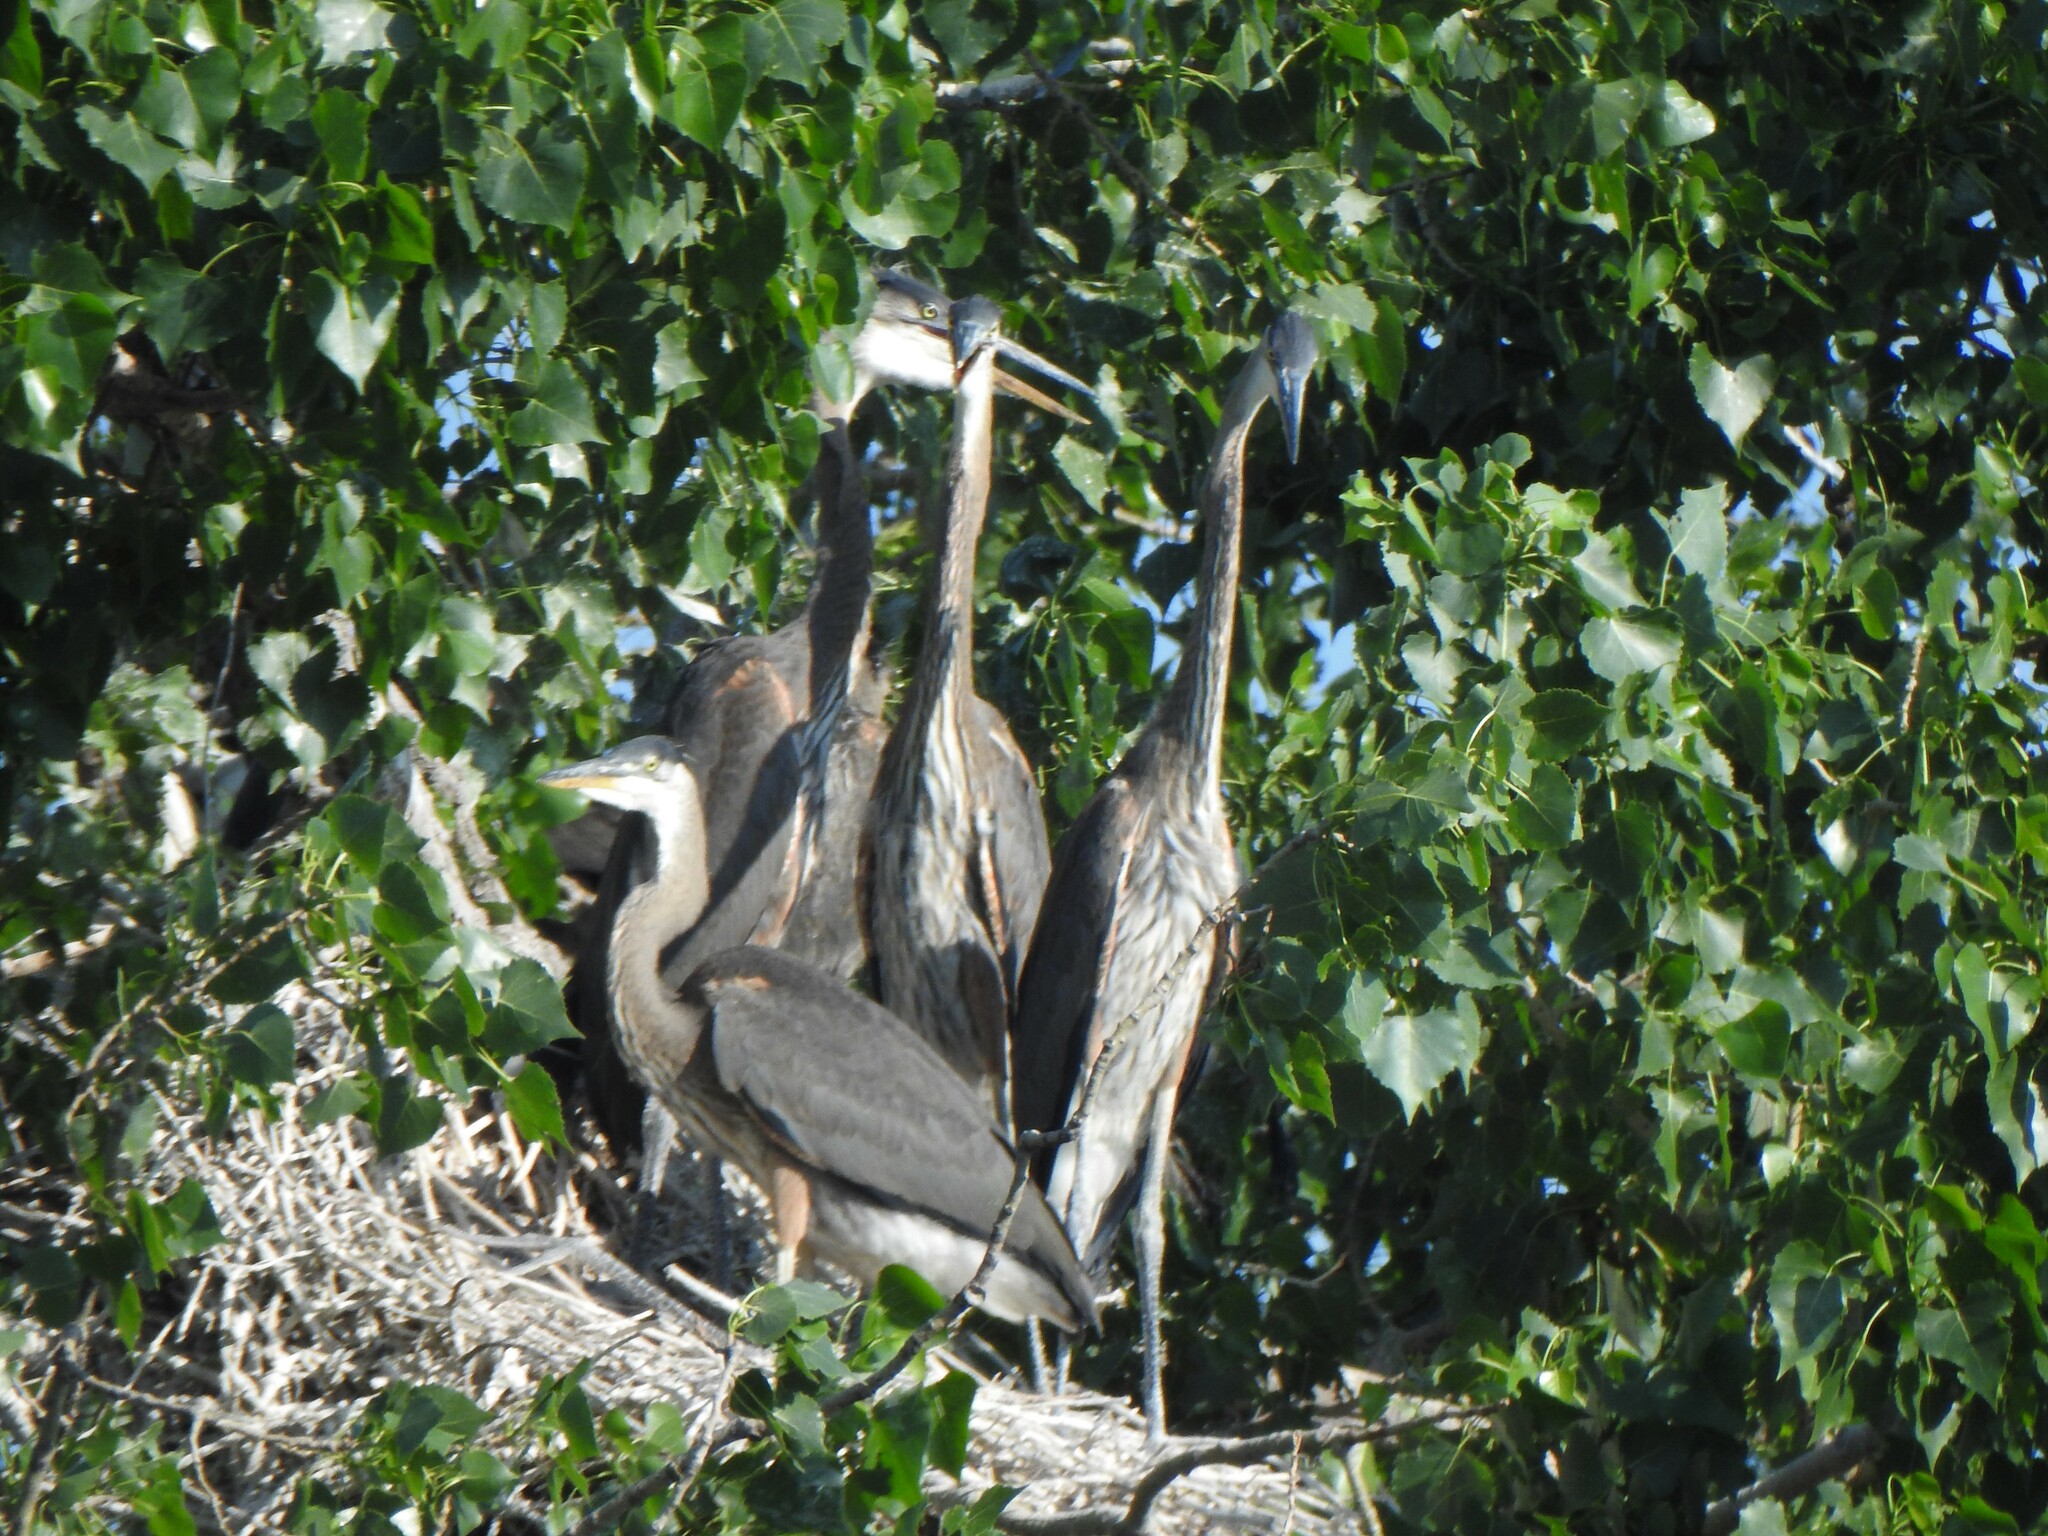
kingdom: Animalia
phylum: Chordata
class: Aves
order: Pelecaniformes
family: Ardeidae
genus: Ardea
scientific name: Ardea herodias
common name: Great blue heron
